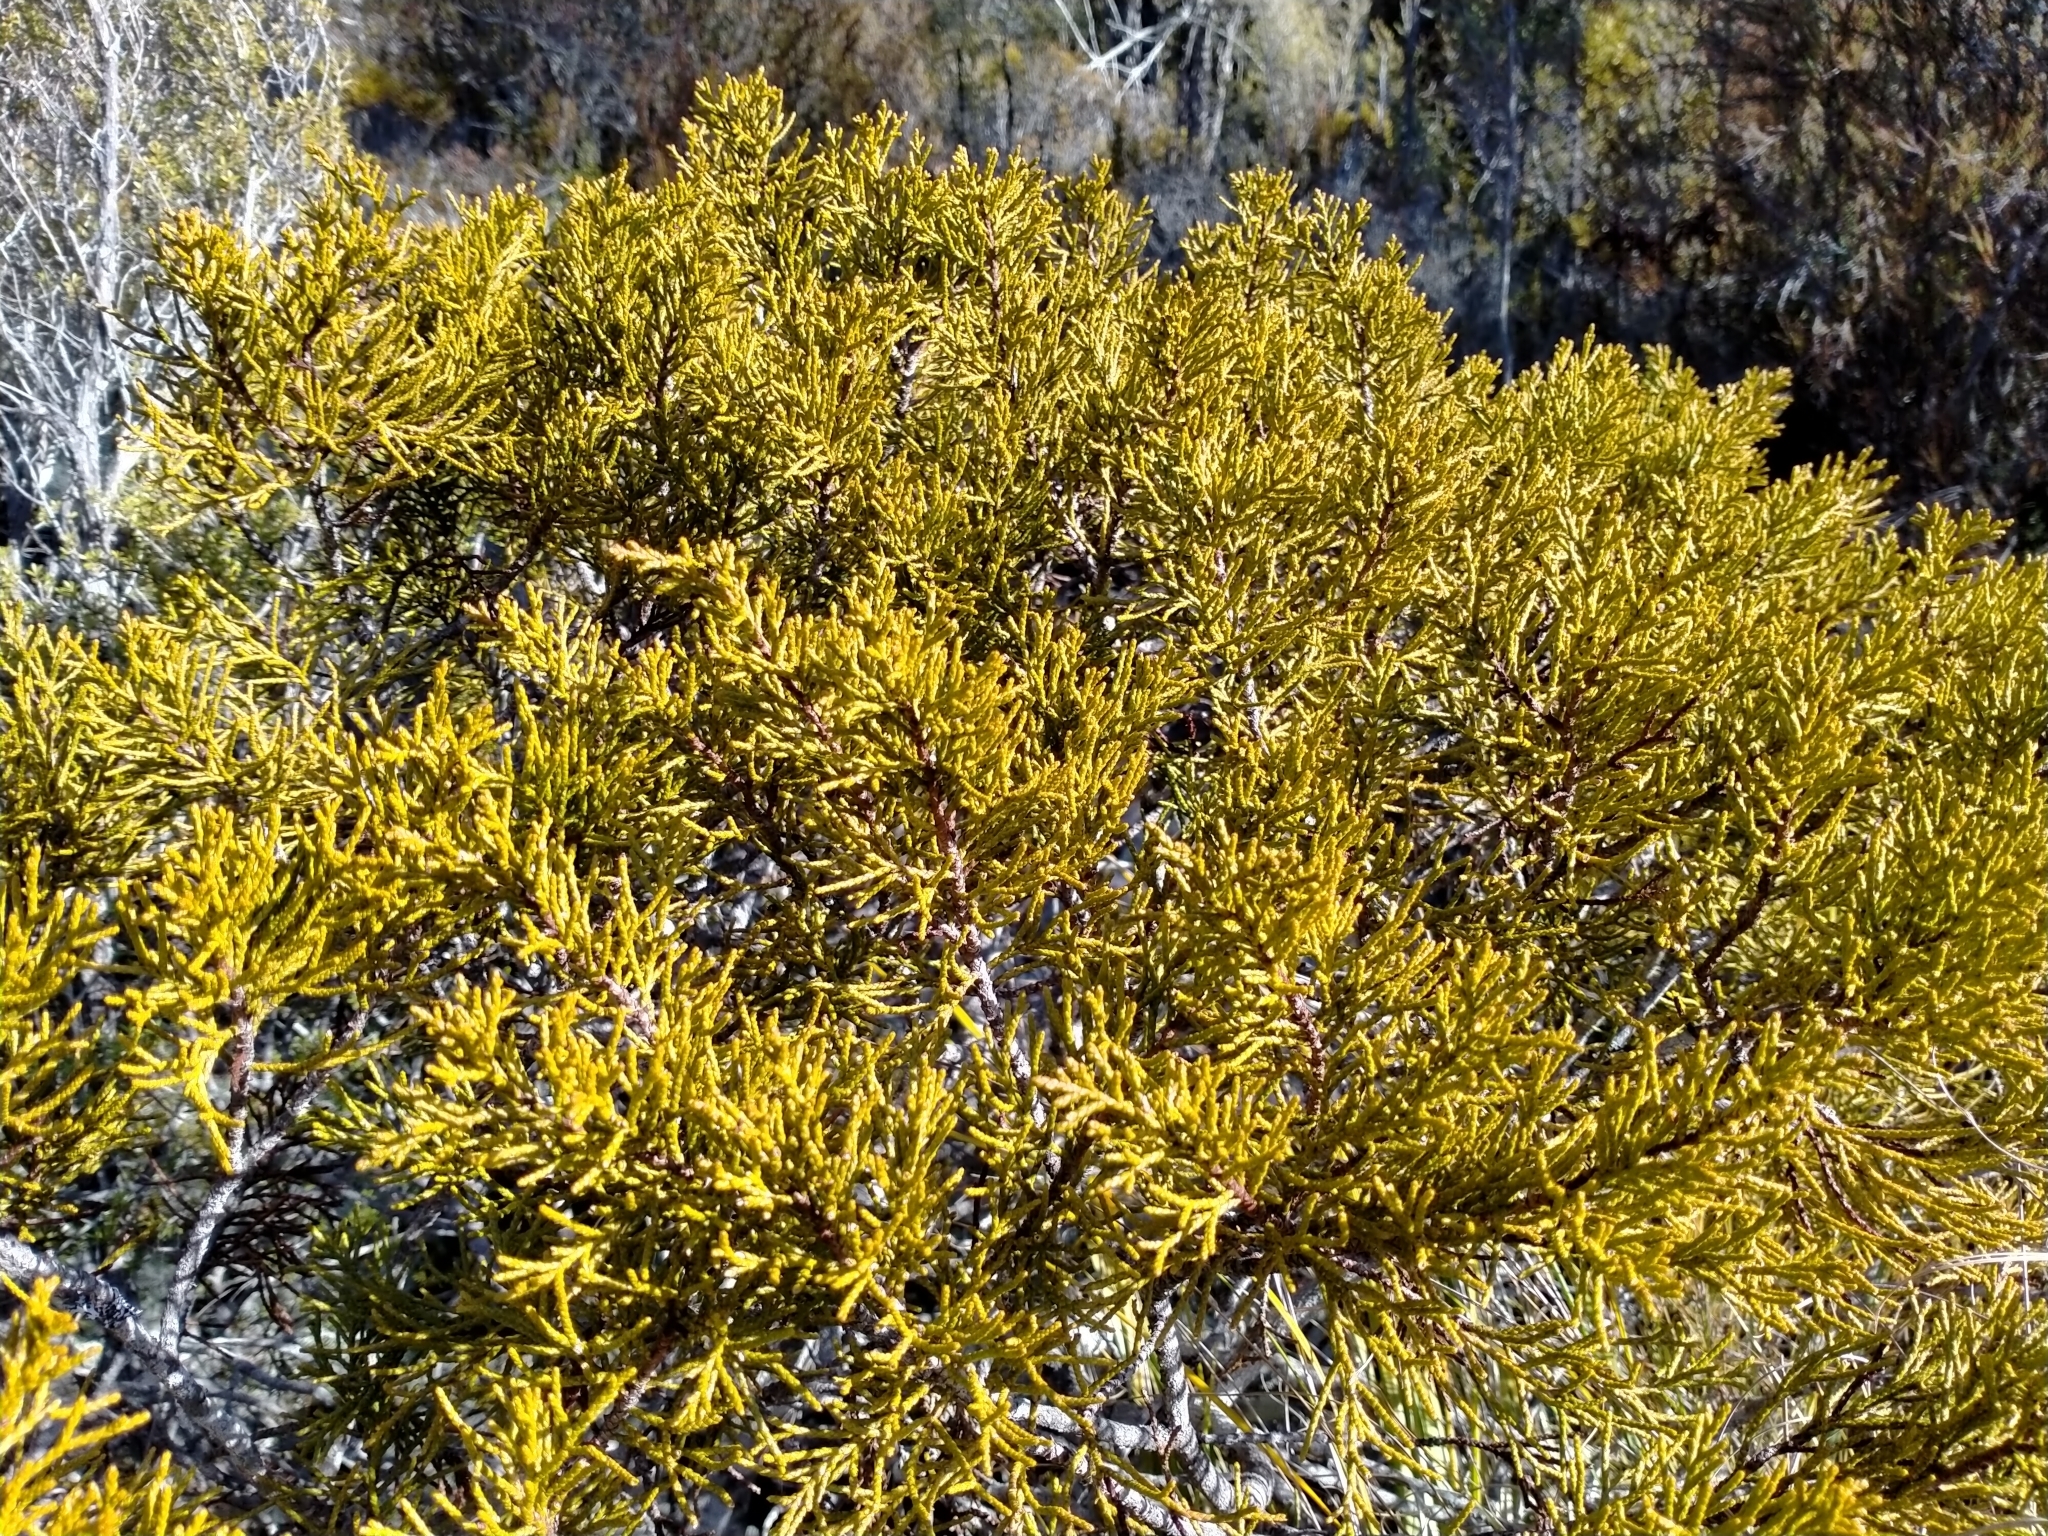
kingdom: Plantae
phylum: Tracheophyta
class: Pinopsida
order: Pinales
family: Podocarpaceae
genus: Halocarpus
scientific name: Halocarpus bidwillii
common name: Bog pine
